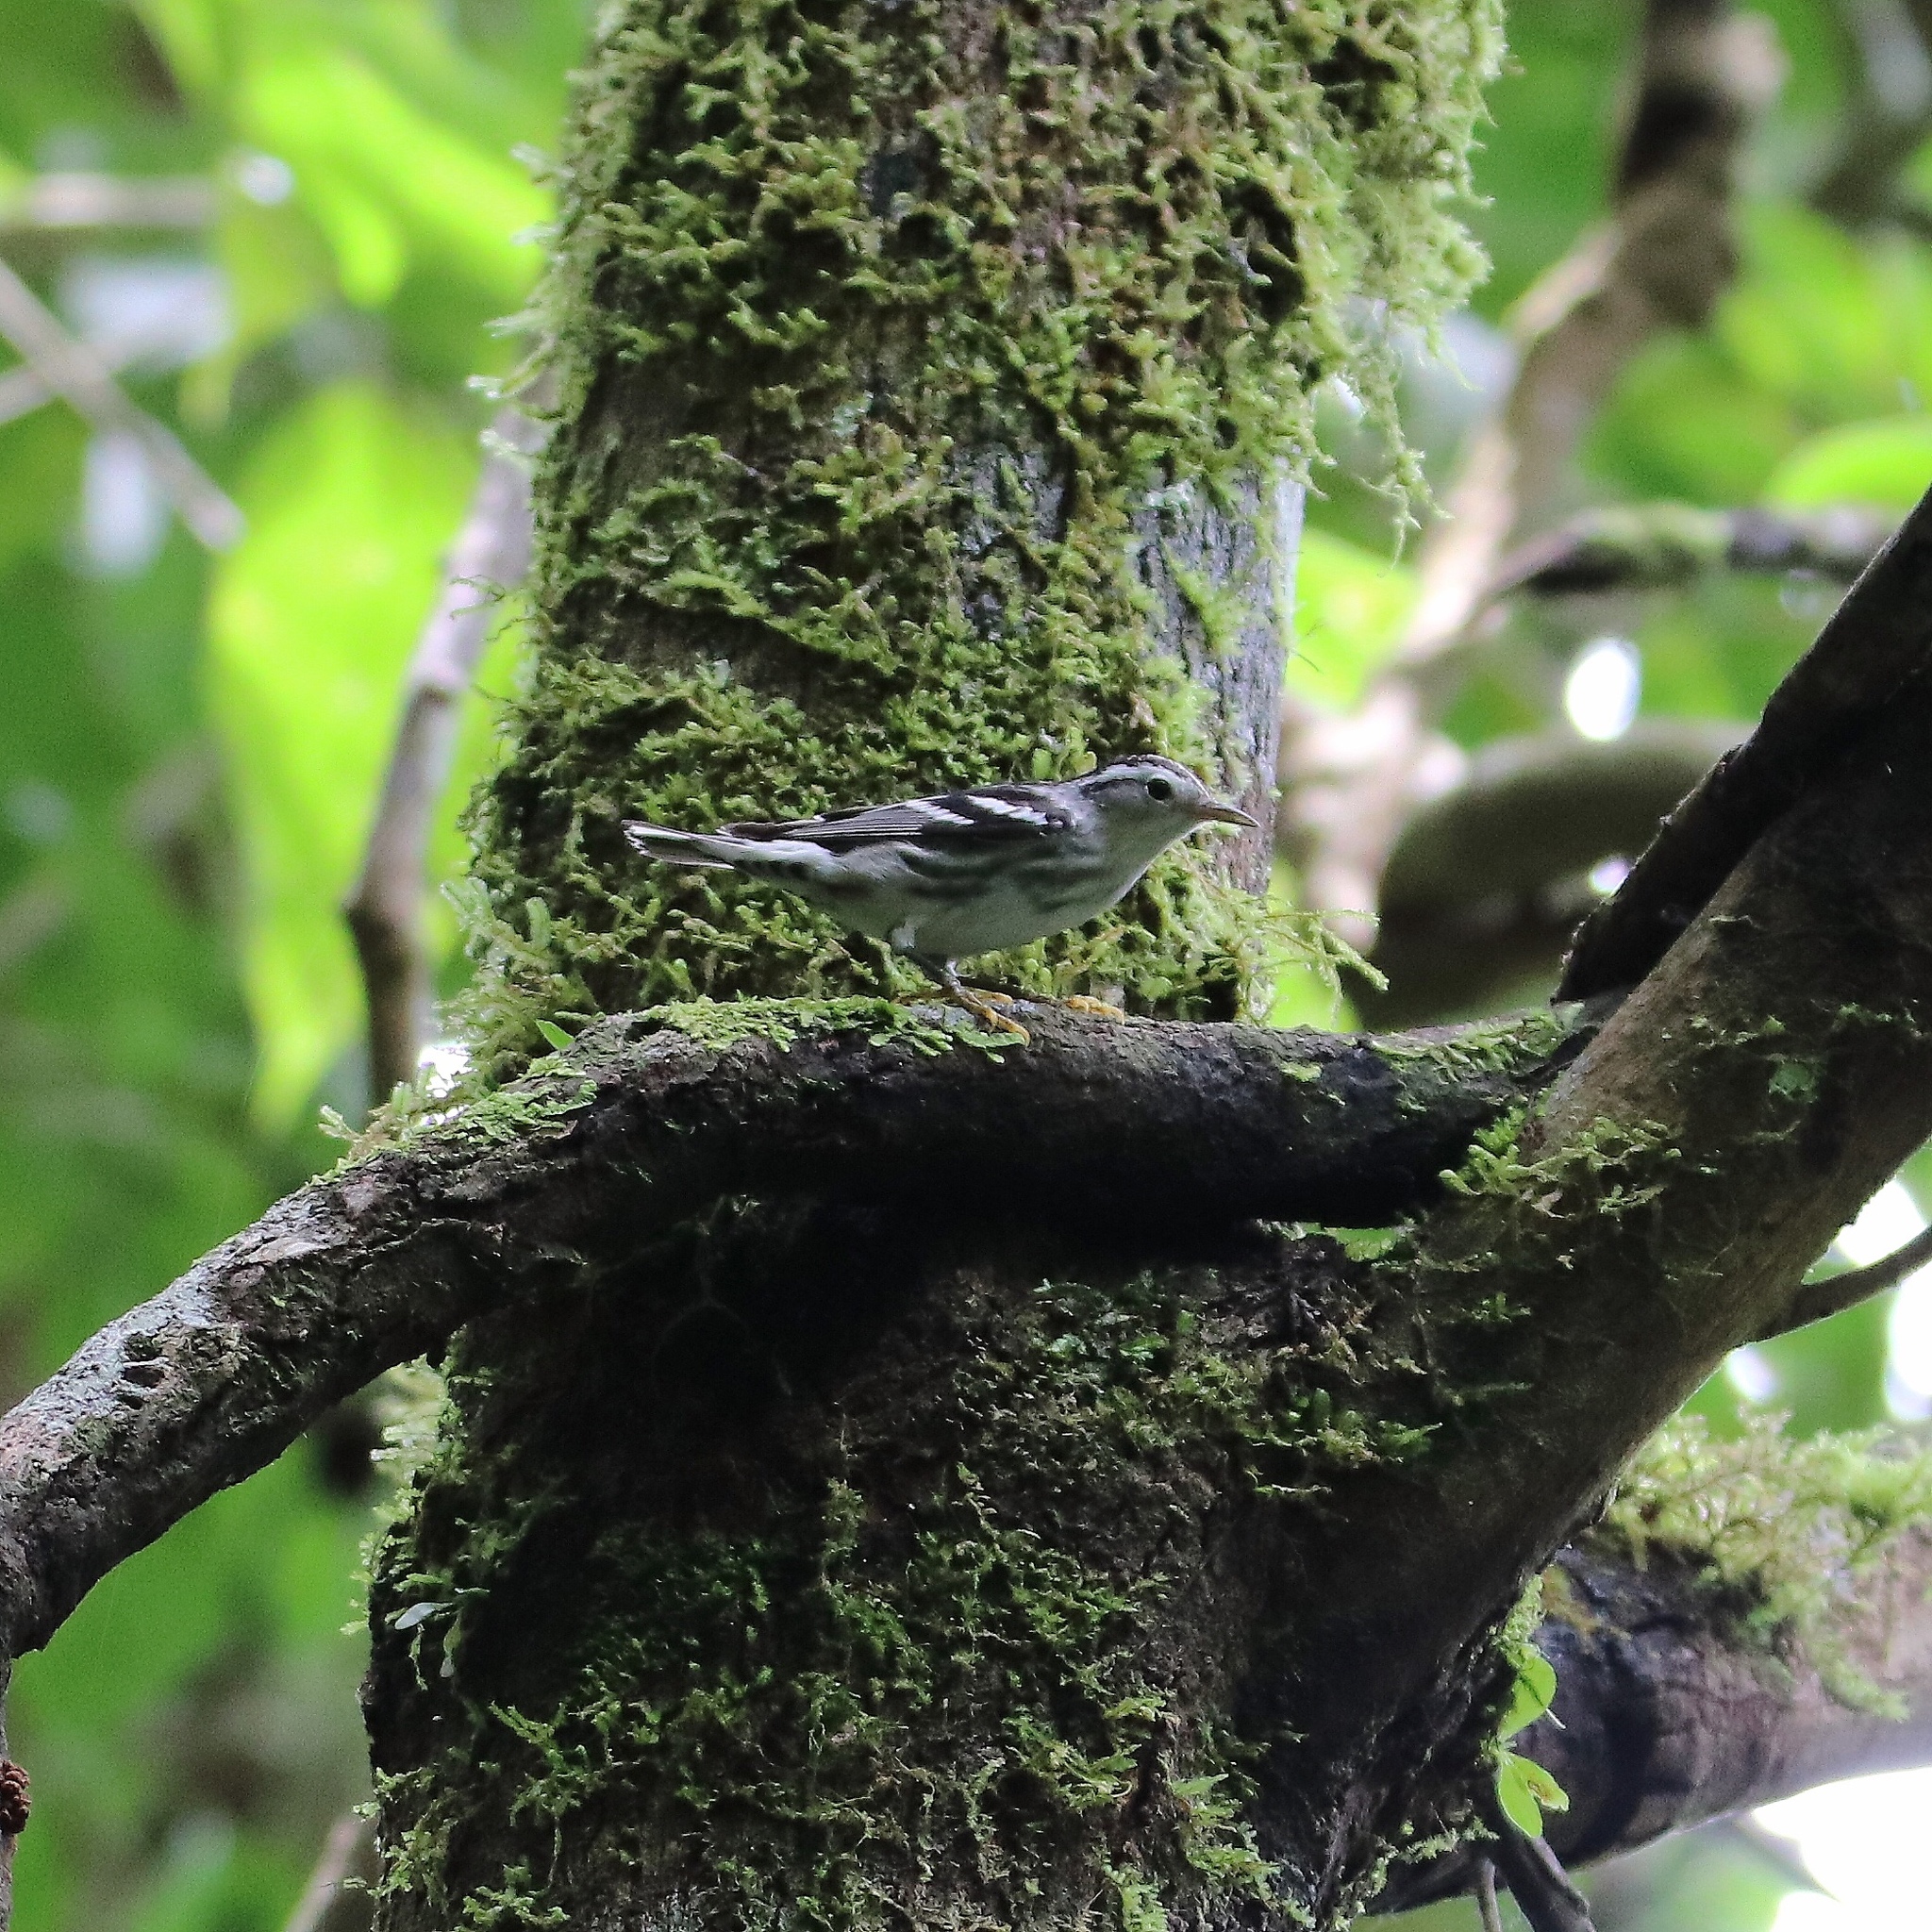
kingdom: Animalia
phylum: Chordata
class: Aves
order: Passeriformes
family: Parulidae
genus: Mniotilta
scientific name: Mniotilta varia
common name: Black-and-white warbler
